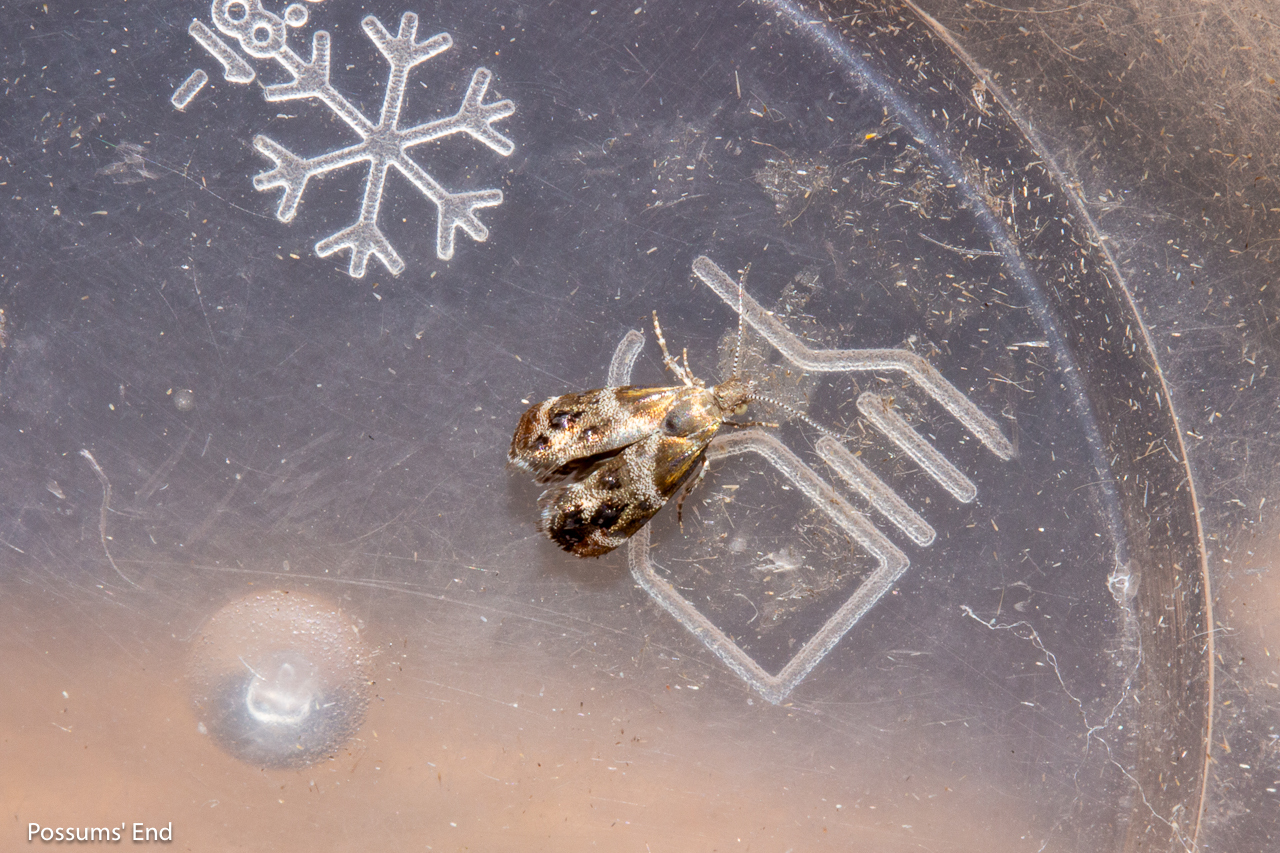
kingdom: Animalia
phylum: Arthropoda
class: Insecta
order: Lepidoptera
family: Choreutidae
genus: Tebenna
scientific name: Tebenna micalis
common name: Vagrant twitcher
